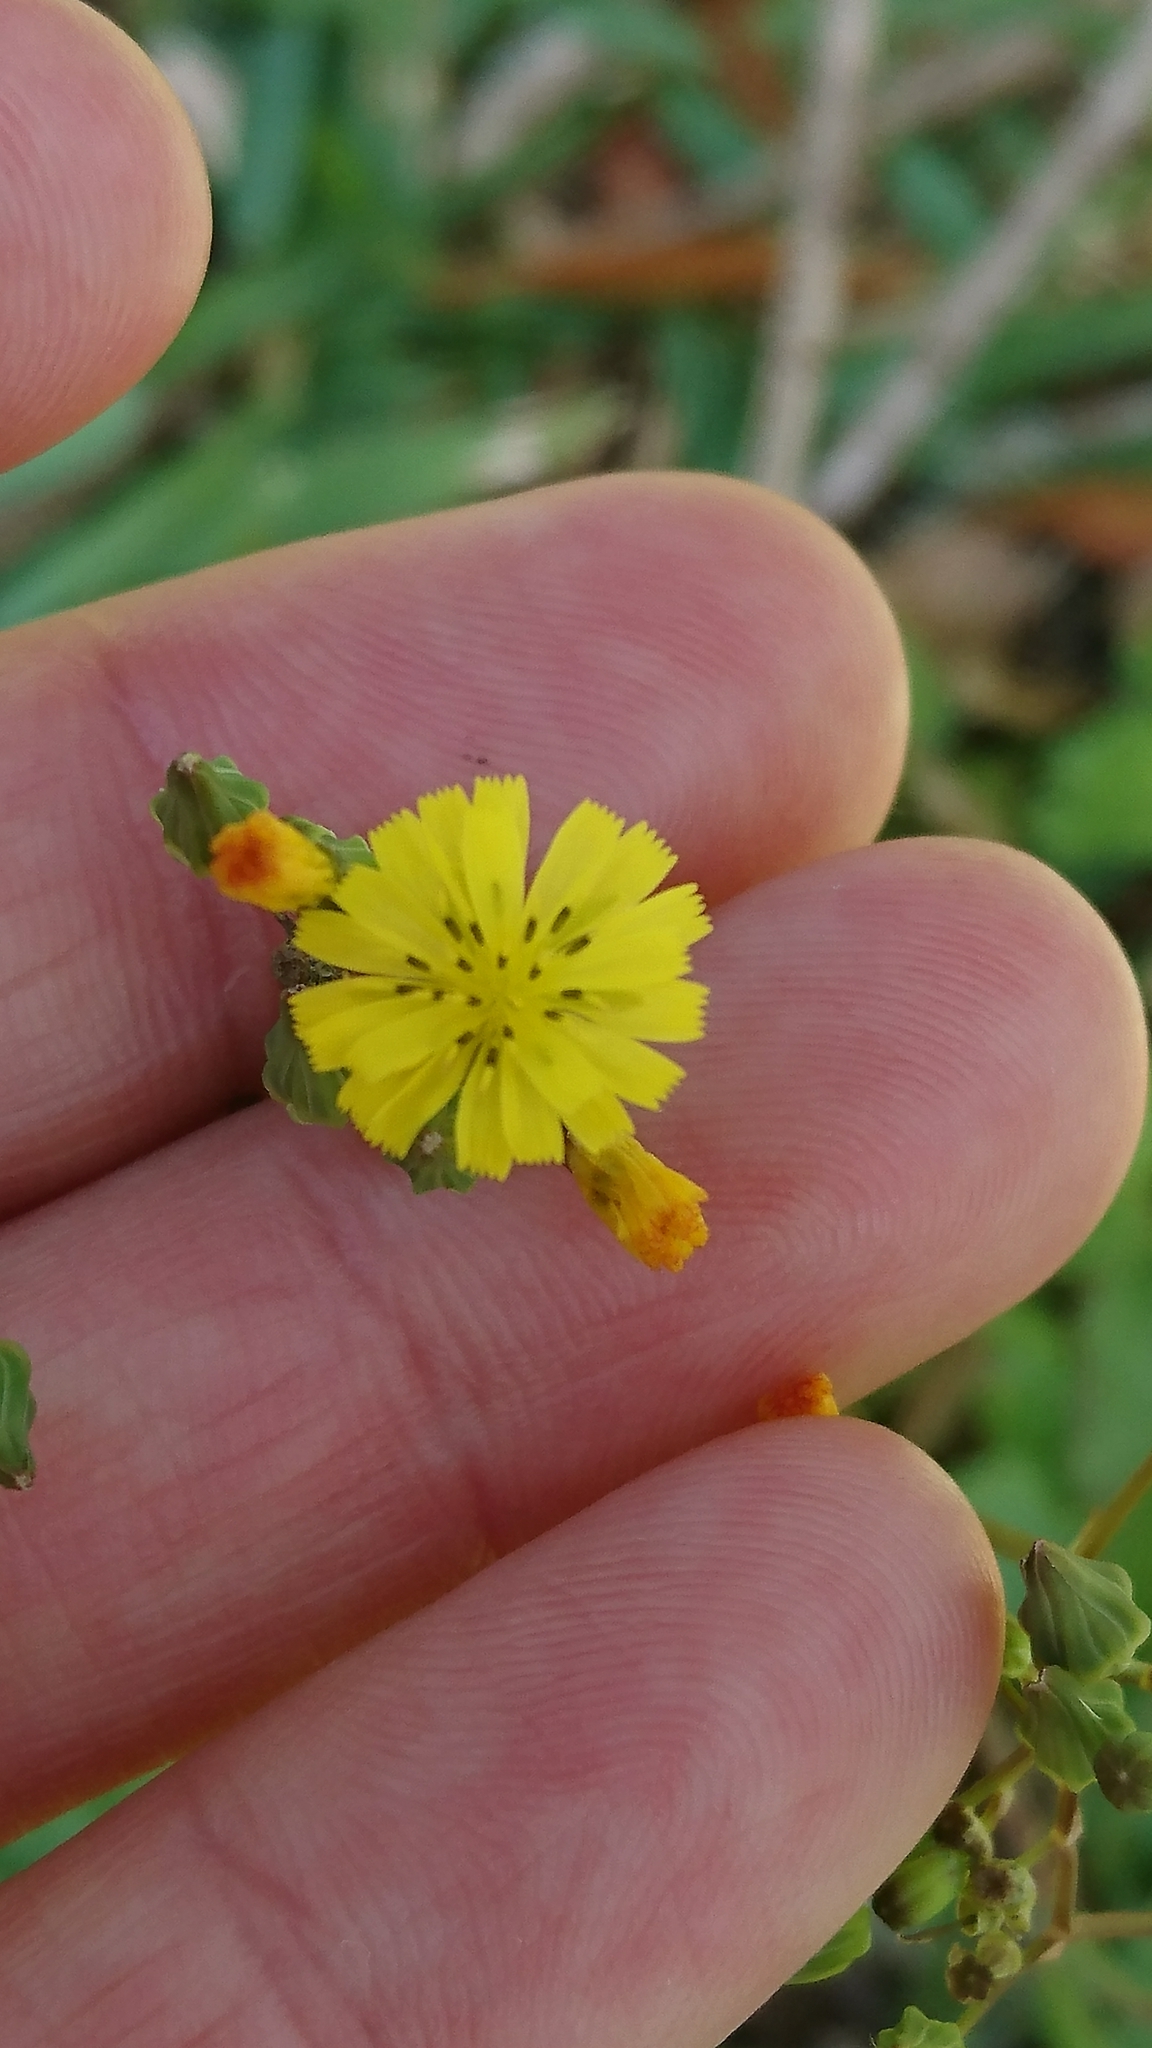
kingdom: Plantae
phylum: Tracheophyta
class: Magnoliopsida
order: Asterales
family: Asteraceae
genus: Youngia
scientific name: Youngia japonica
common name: Oriental false hawksbeard
